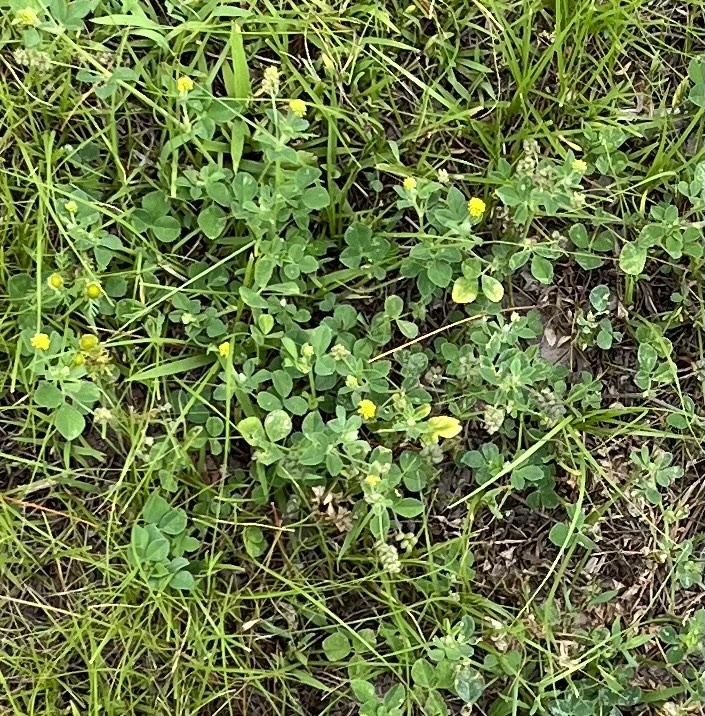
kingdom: Plantae
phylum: Tracheophyta
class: Magnoliopsida
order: Fabales
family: Fabaceae
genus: Medicago
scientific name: Medicago lupulina
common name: Black medick
